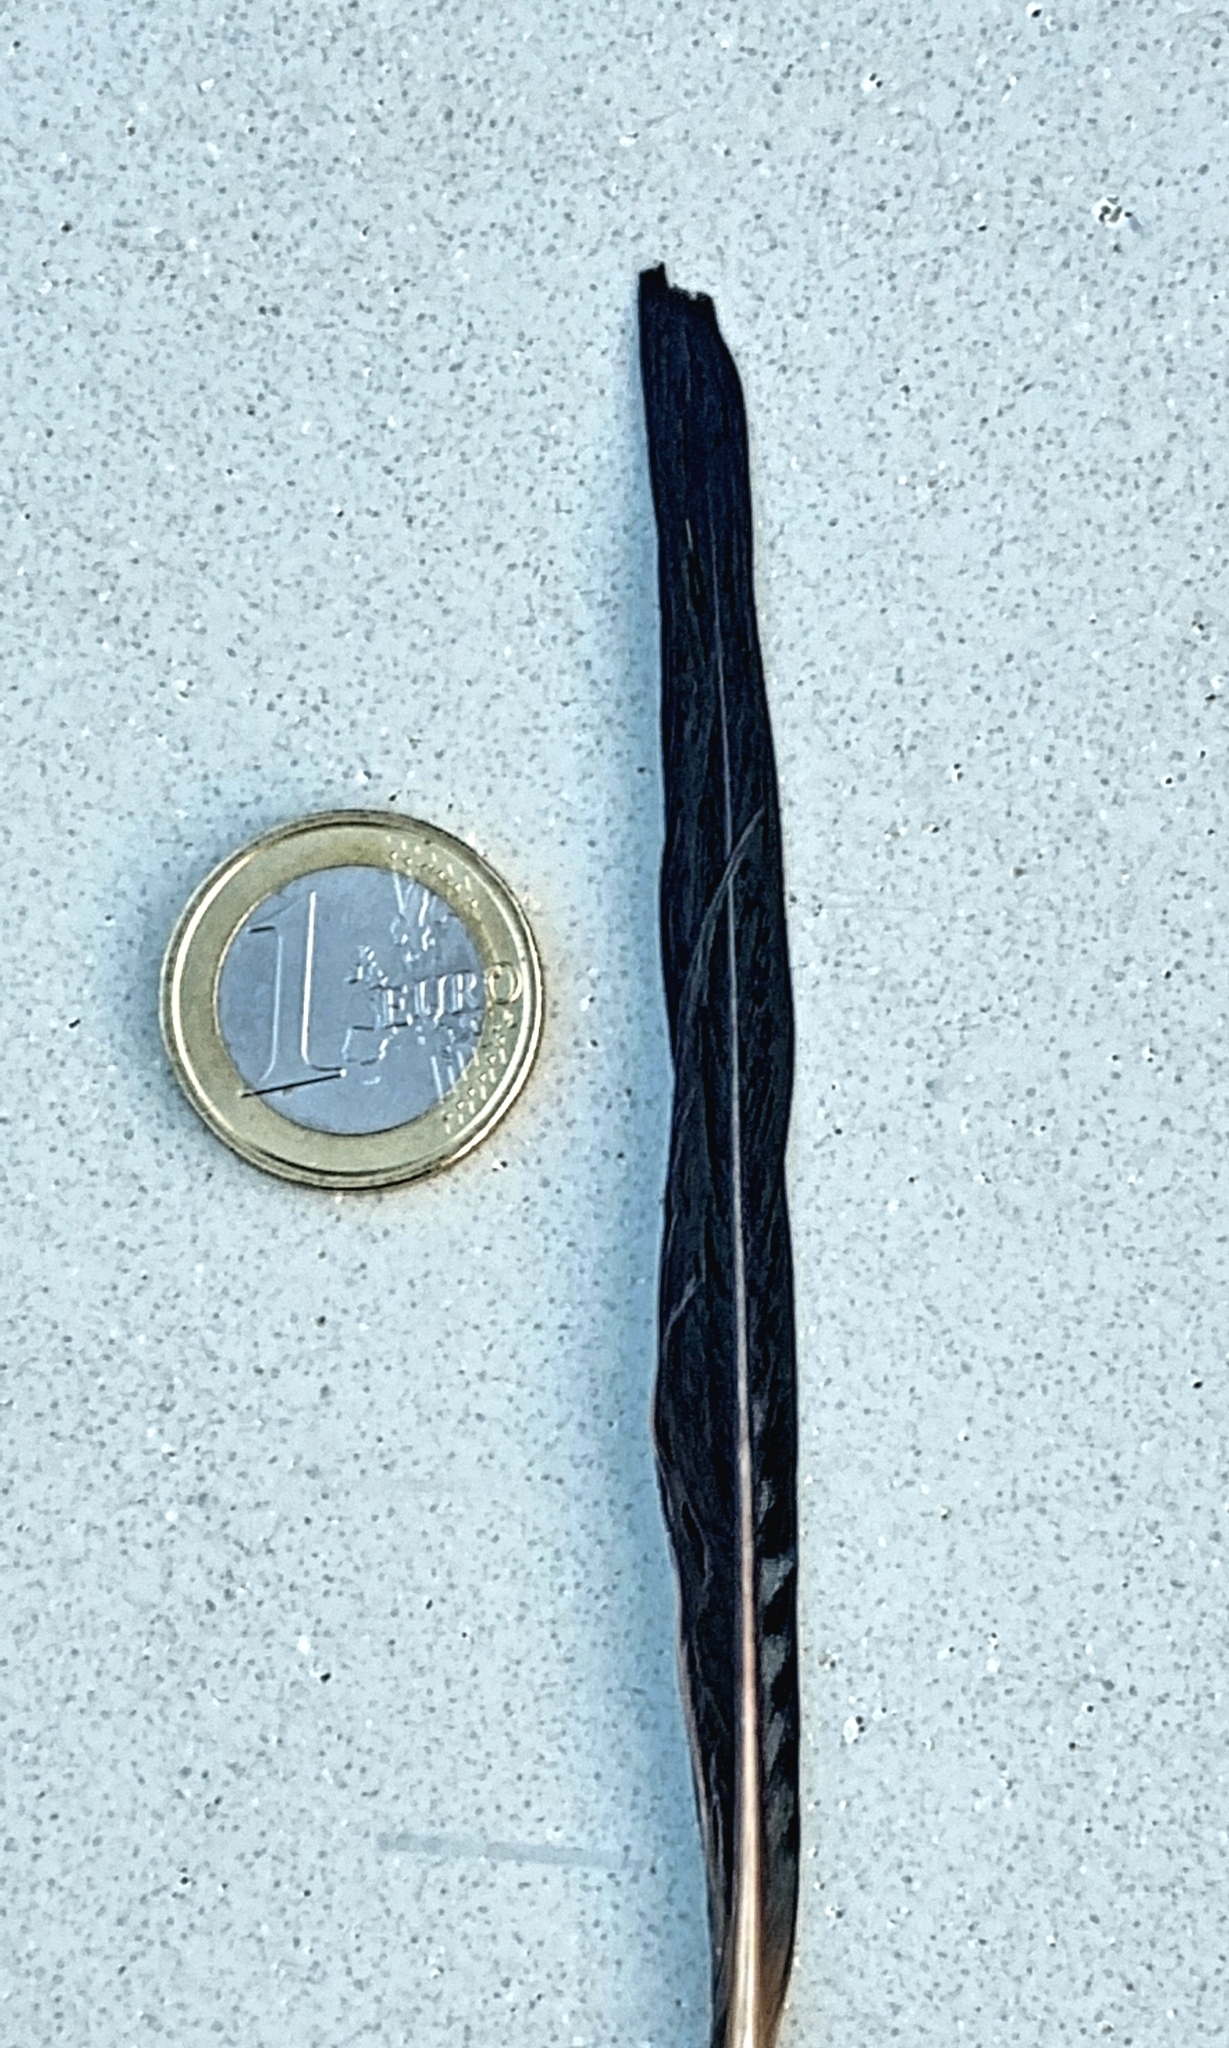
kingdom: Animalia
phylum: Chordata
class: Aves
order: Passeriformes
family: Corvidae
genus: Garrulus
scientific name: Garrulus glandarius
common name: Eurasian jay
